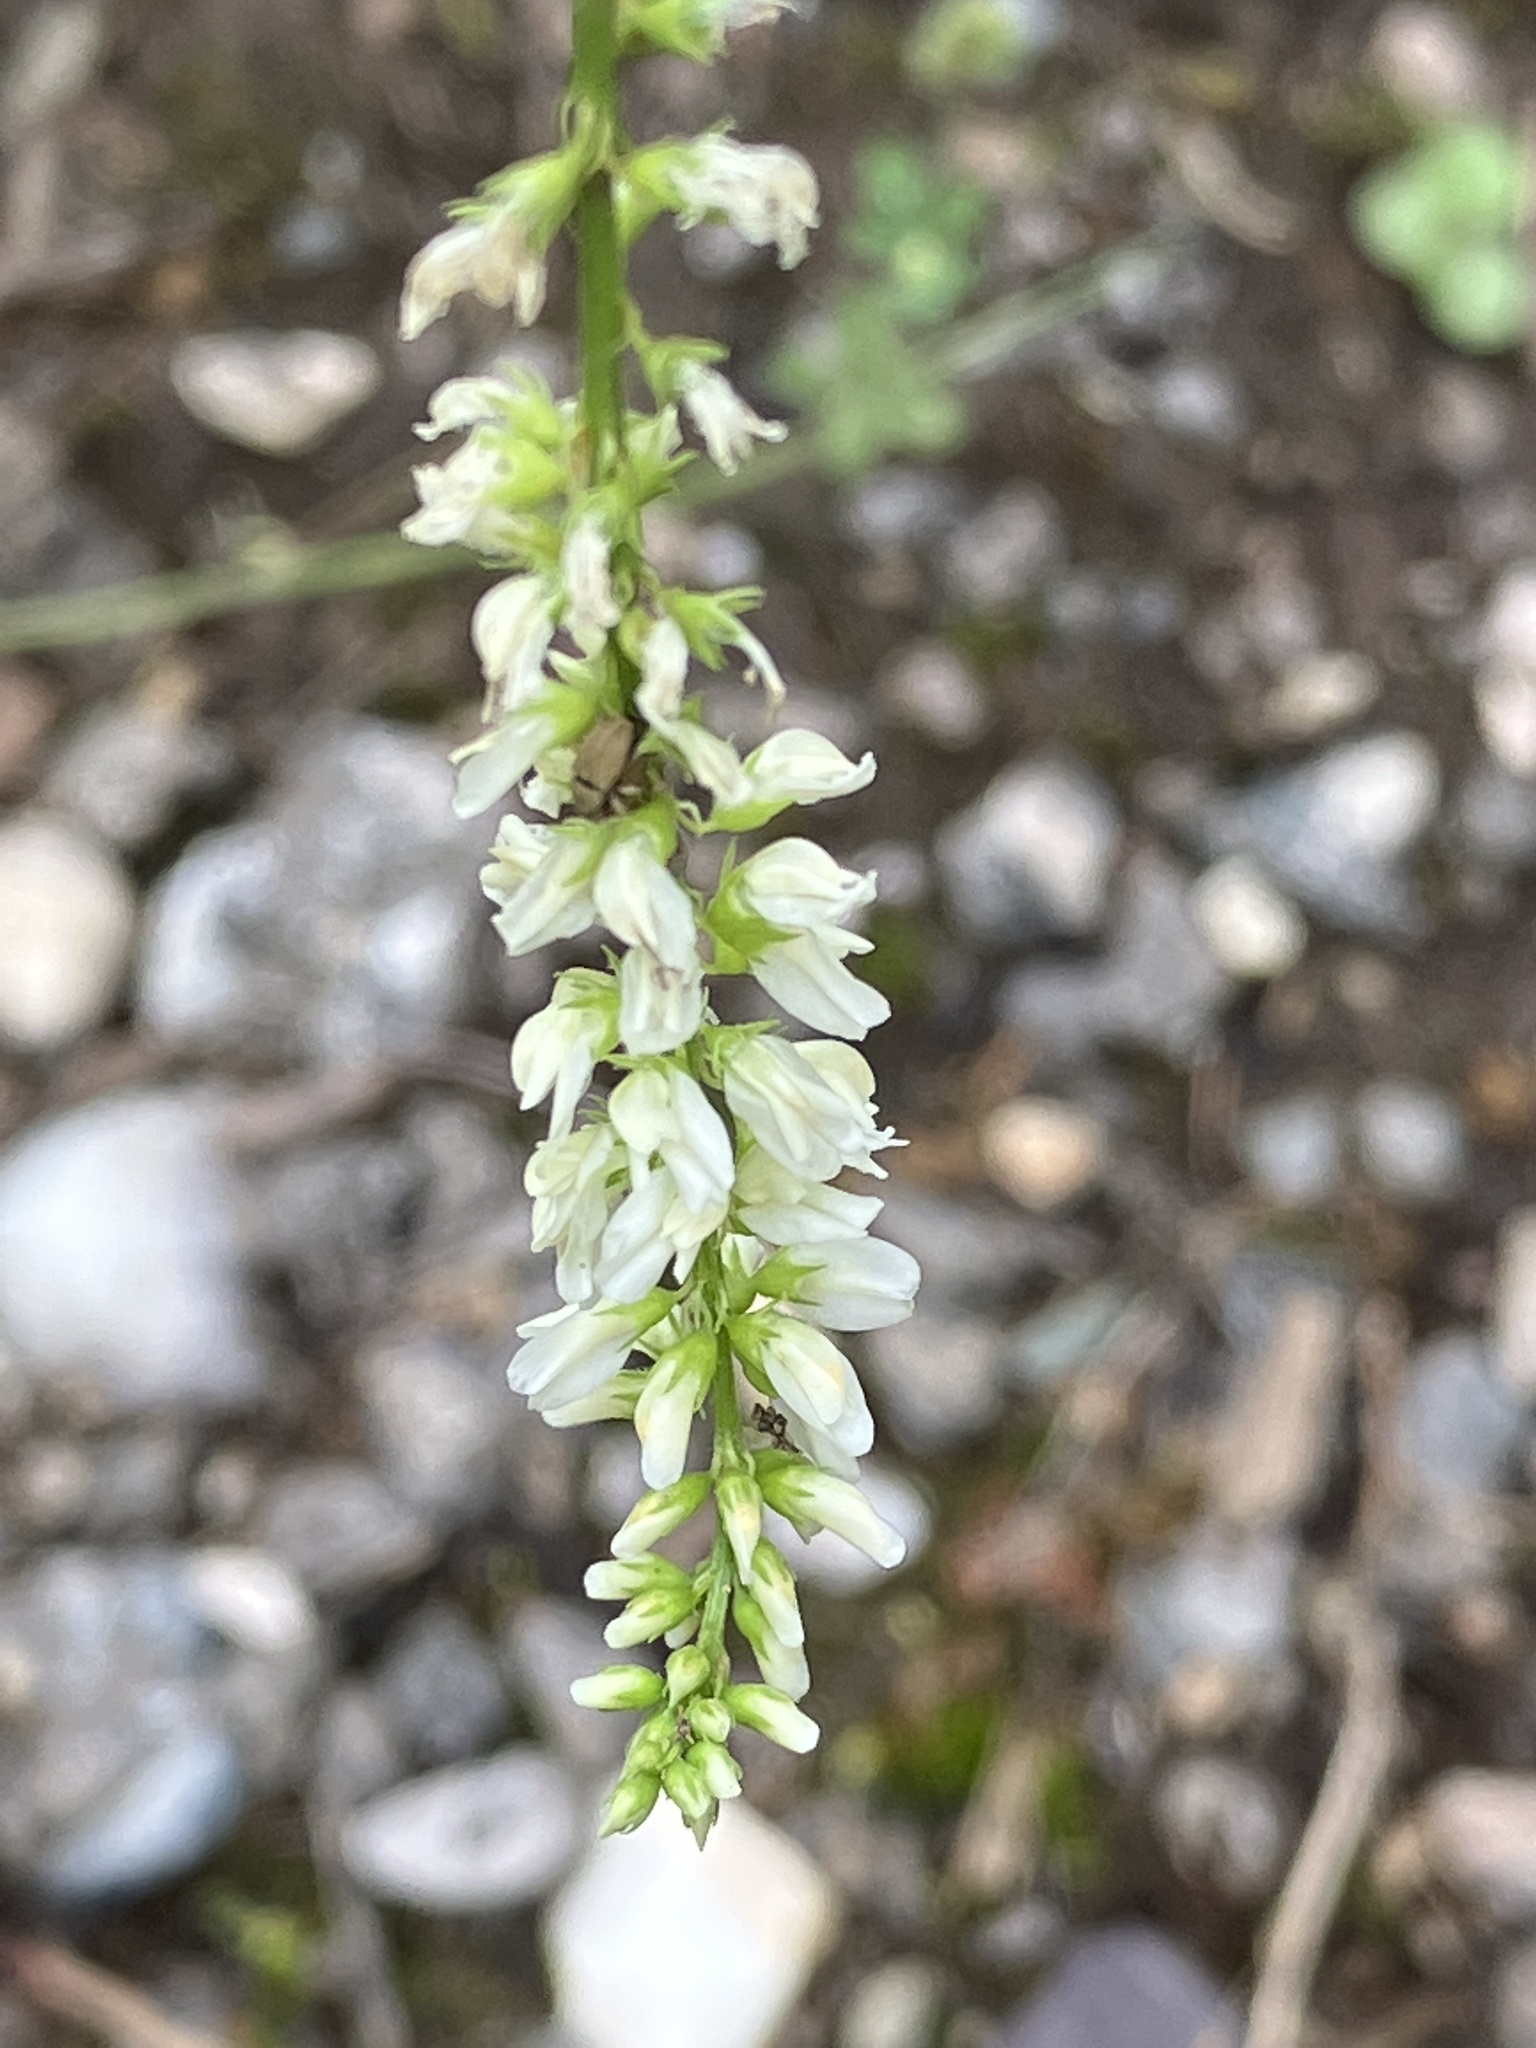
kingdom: Plantae
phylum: Tracheophyta
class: Magnoliopsida
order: Fabales
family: Fabaceae
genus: Melilotus
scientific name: Melilotus albus
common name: White melilot
